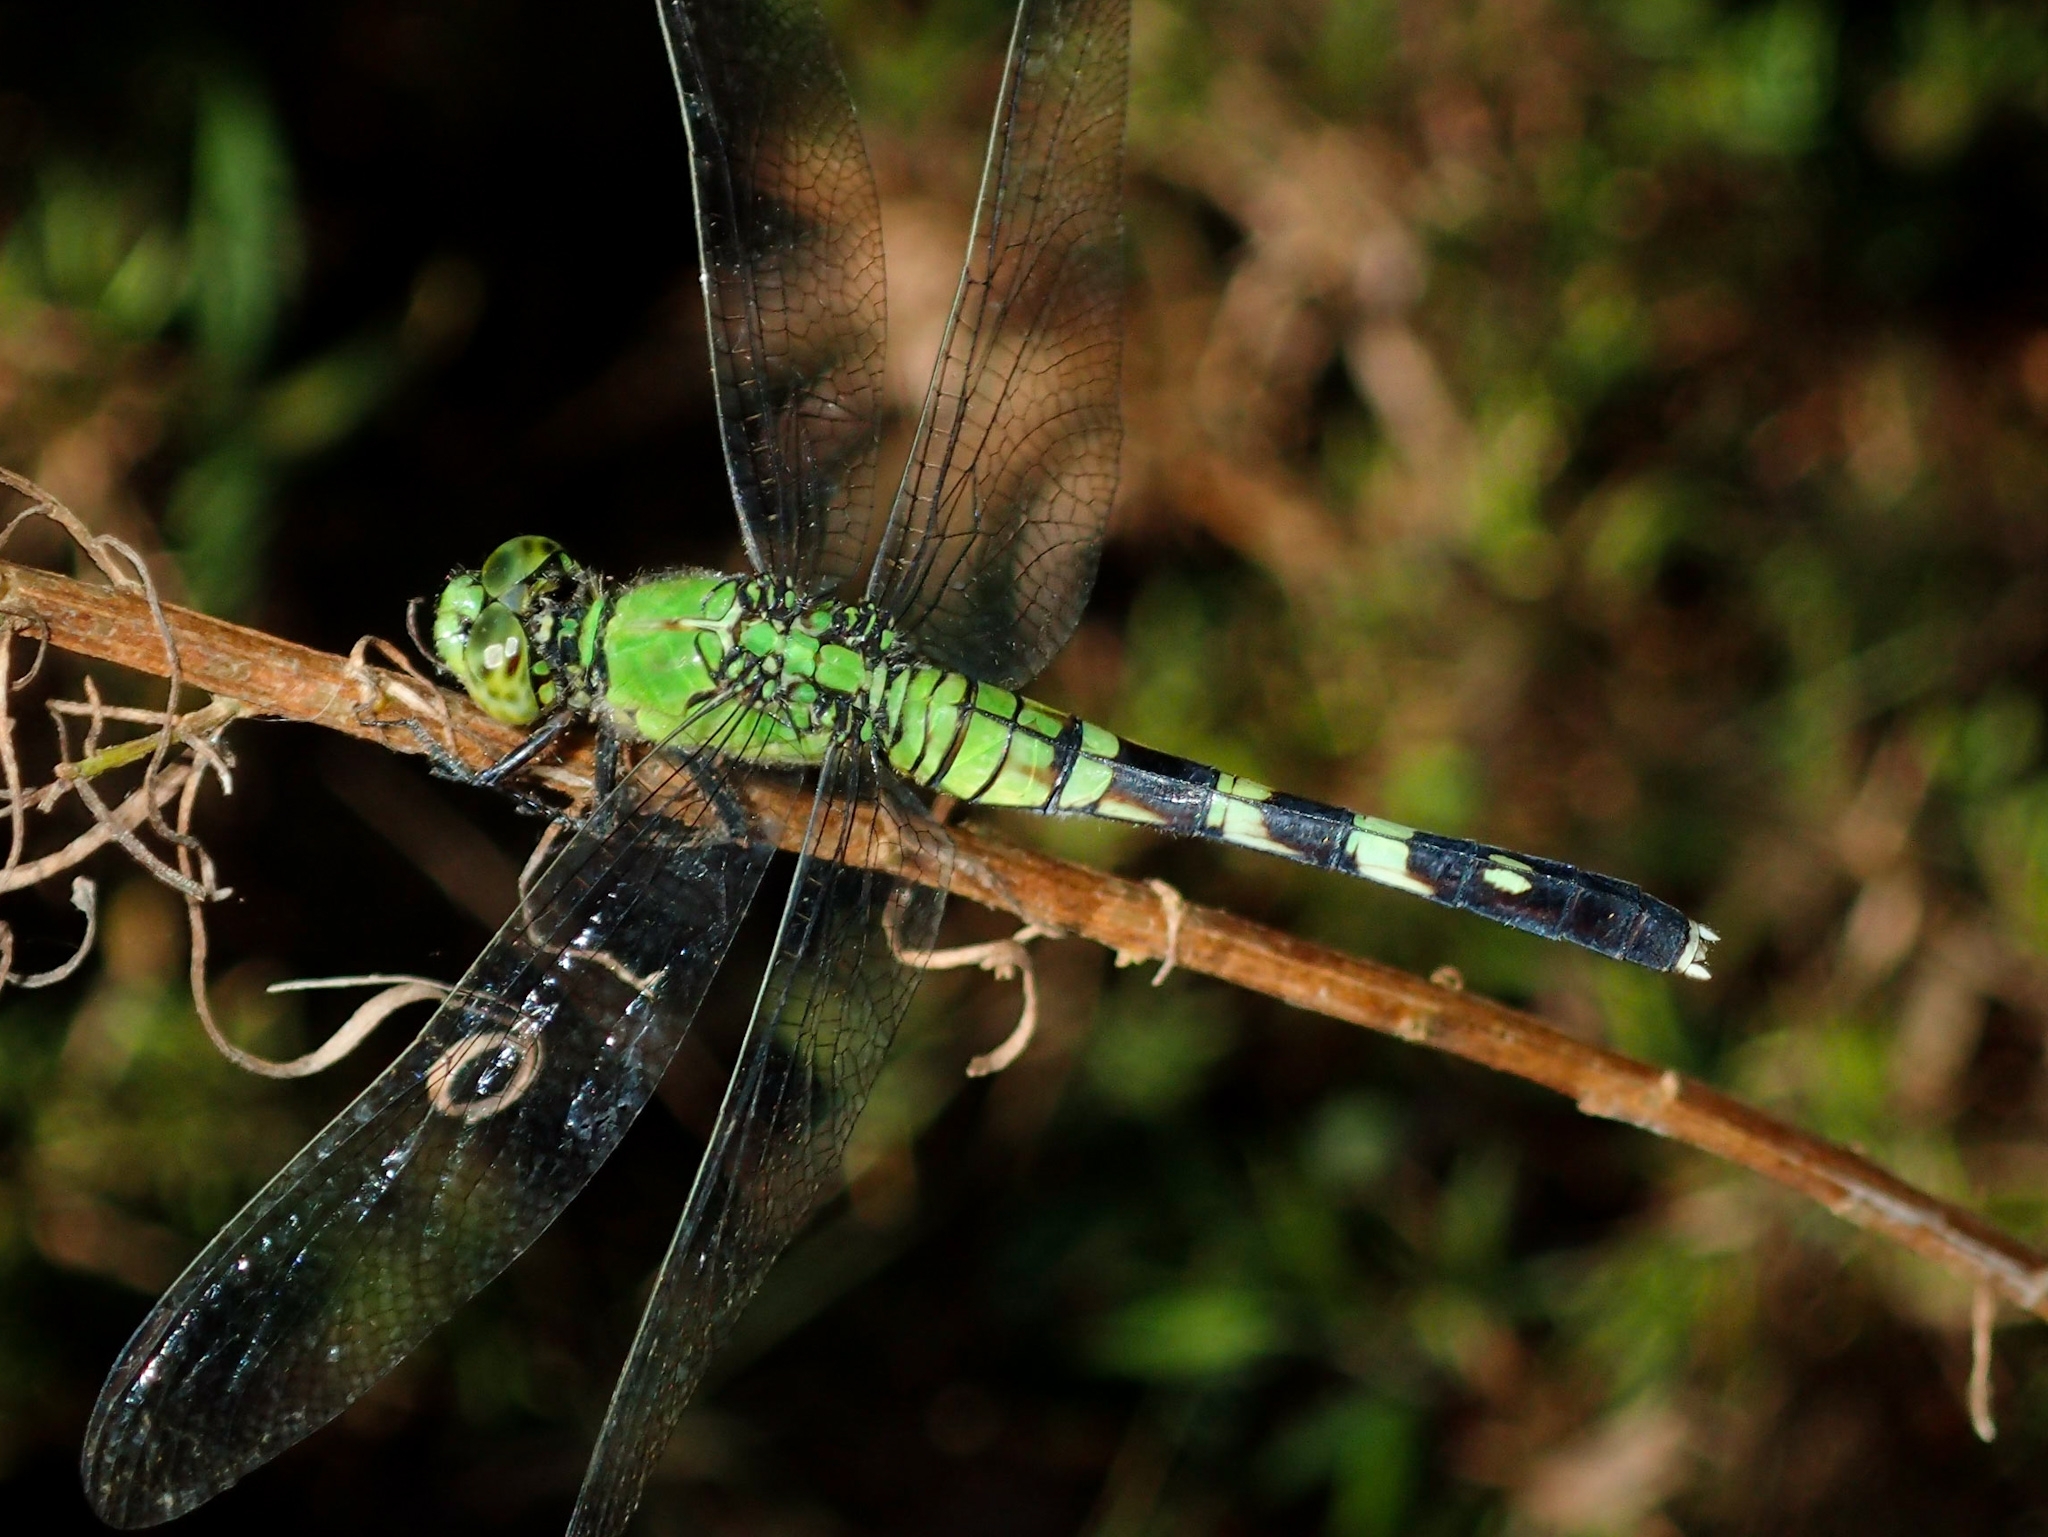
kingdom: Animalia
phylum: Arthropoda
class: Insecta
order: Odonata
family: Libellulidae
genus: Erythemis
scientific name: Erythemis simplicicollis
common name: Eastern pondhawk
